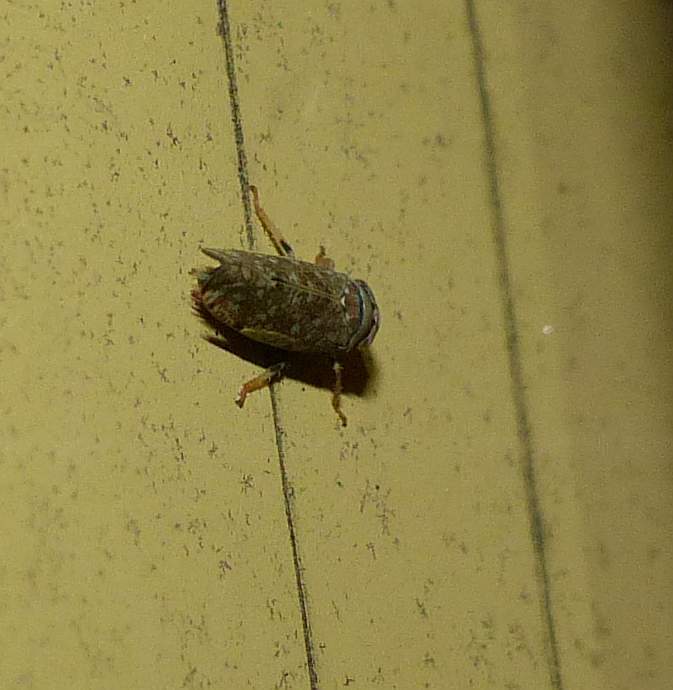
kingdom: Animalia
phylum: Arthropoda
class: Insecta
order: Hemiptera
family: Cicadellidae
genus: Orientus
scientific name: Orientus ishidae
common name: Japanese leafhopper
